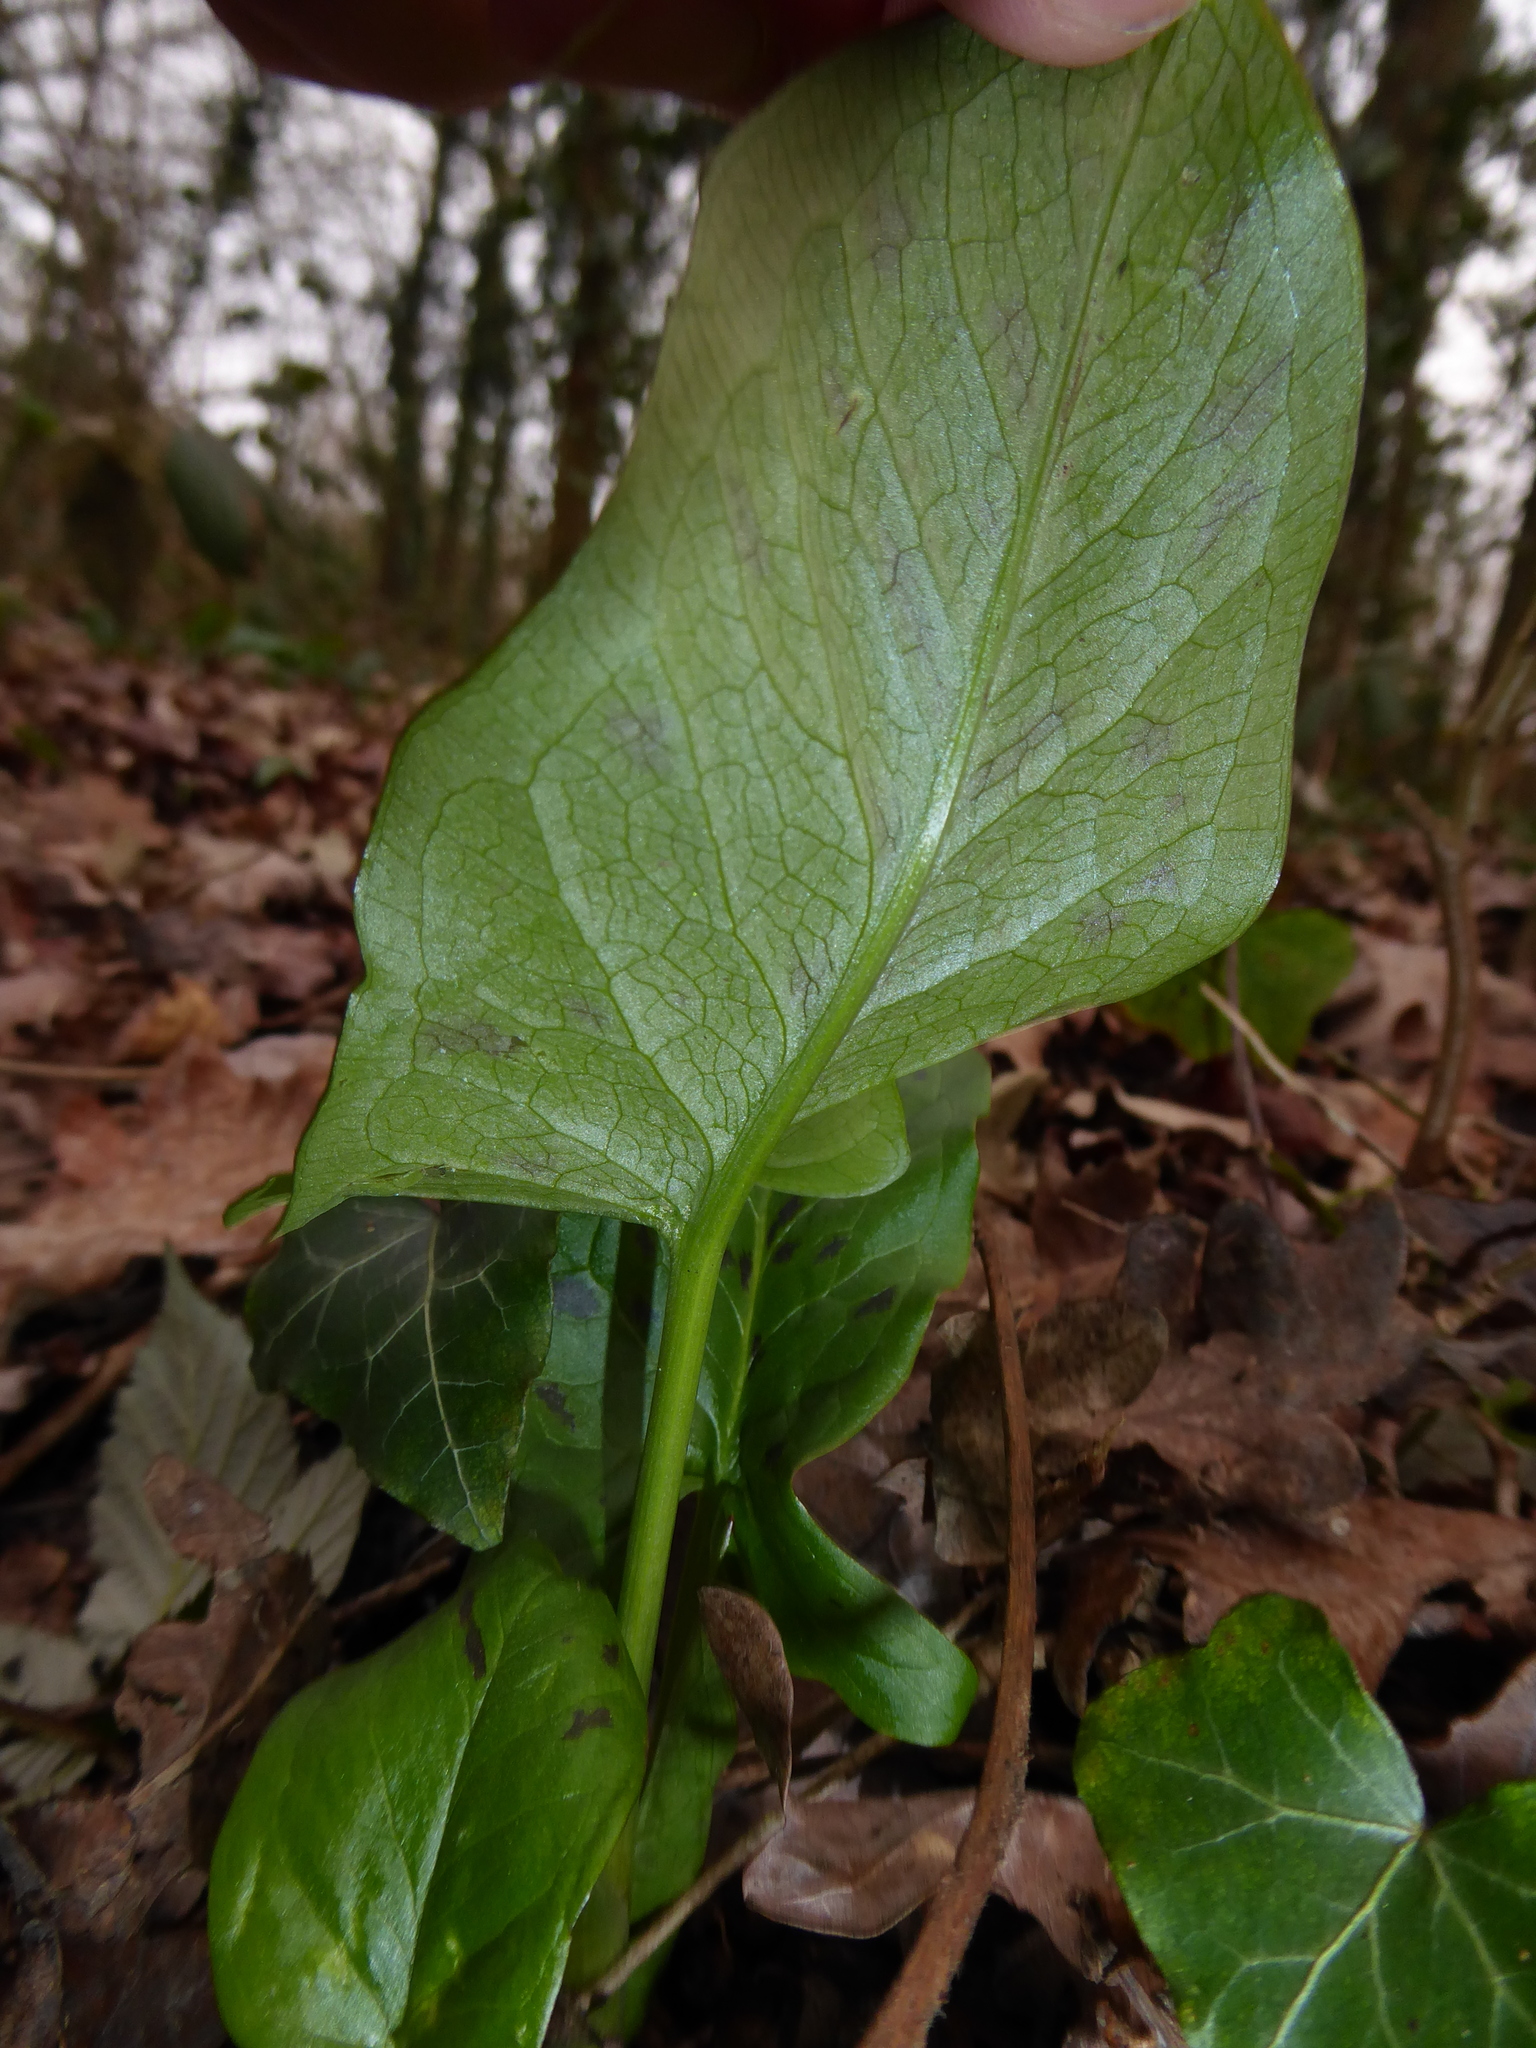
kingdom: Plantae
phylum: Tracheophyta
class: Liliopsida
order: Alismatales
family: Araceae
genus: Arum
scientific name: Arum maculatum
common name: Lords-and-ladies
